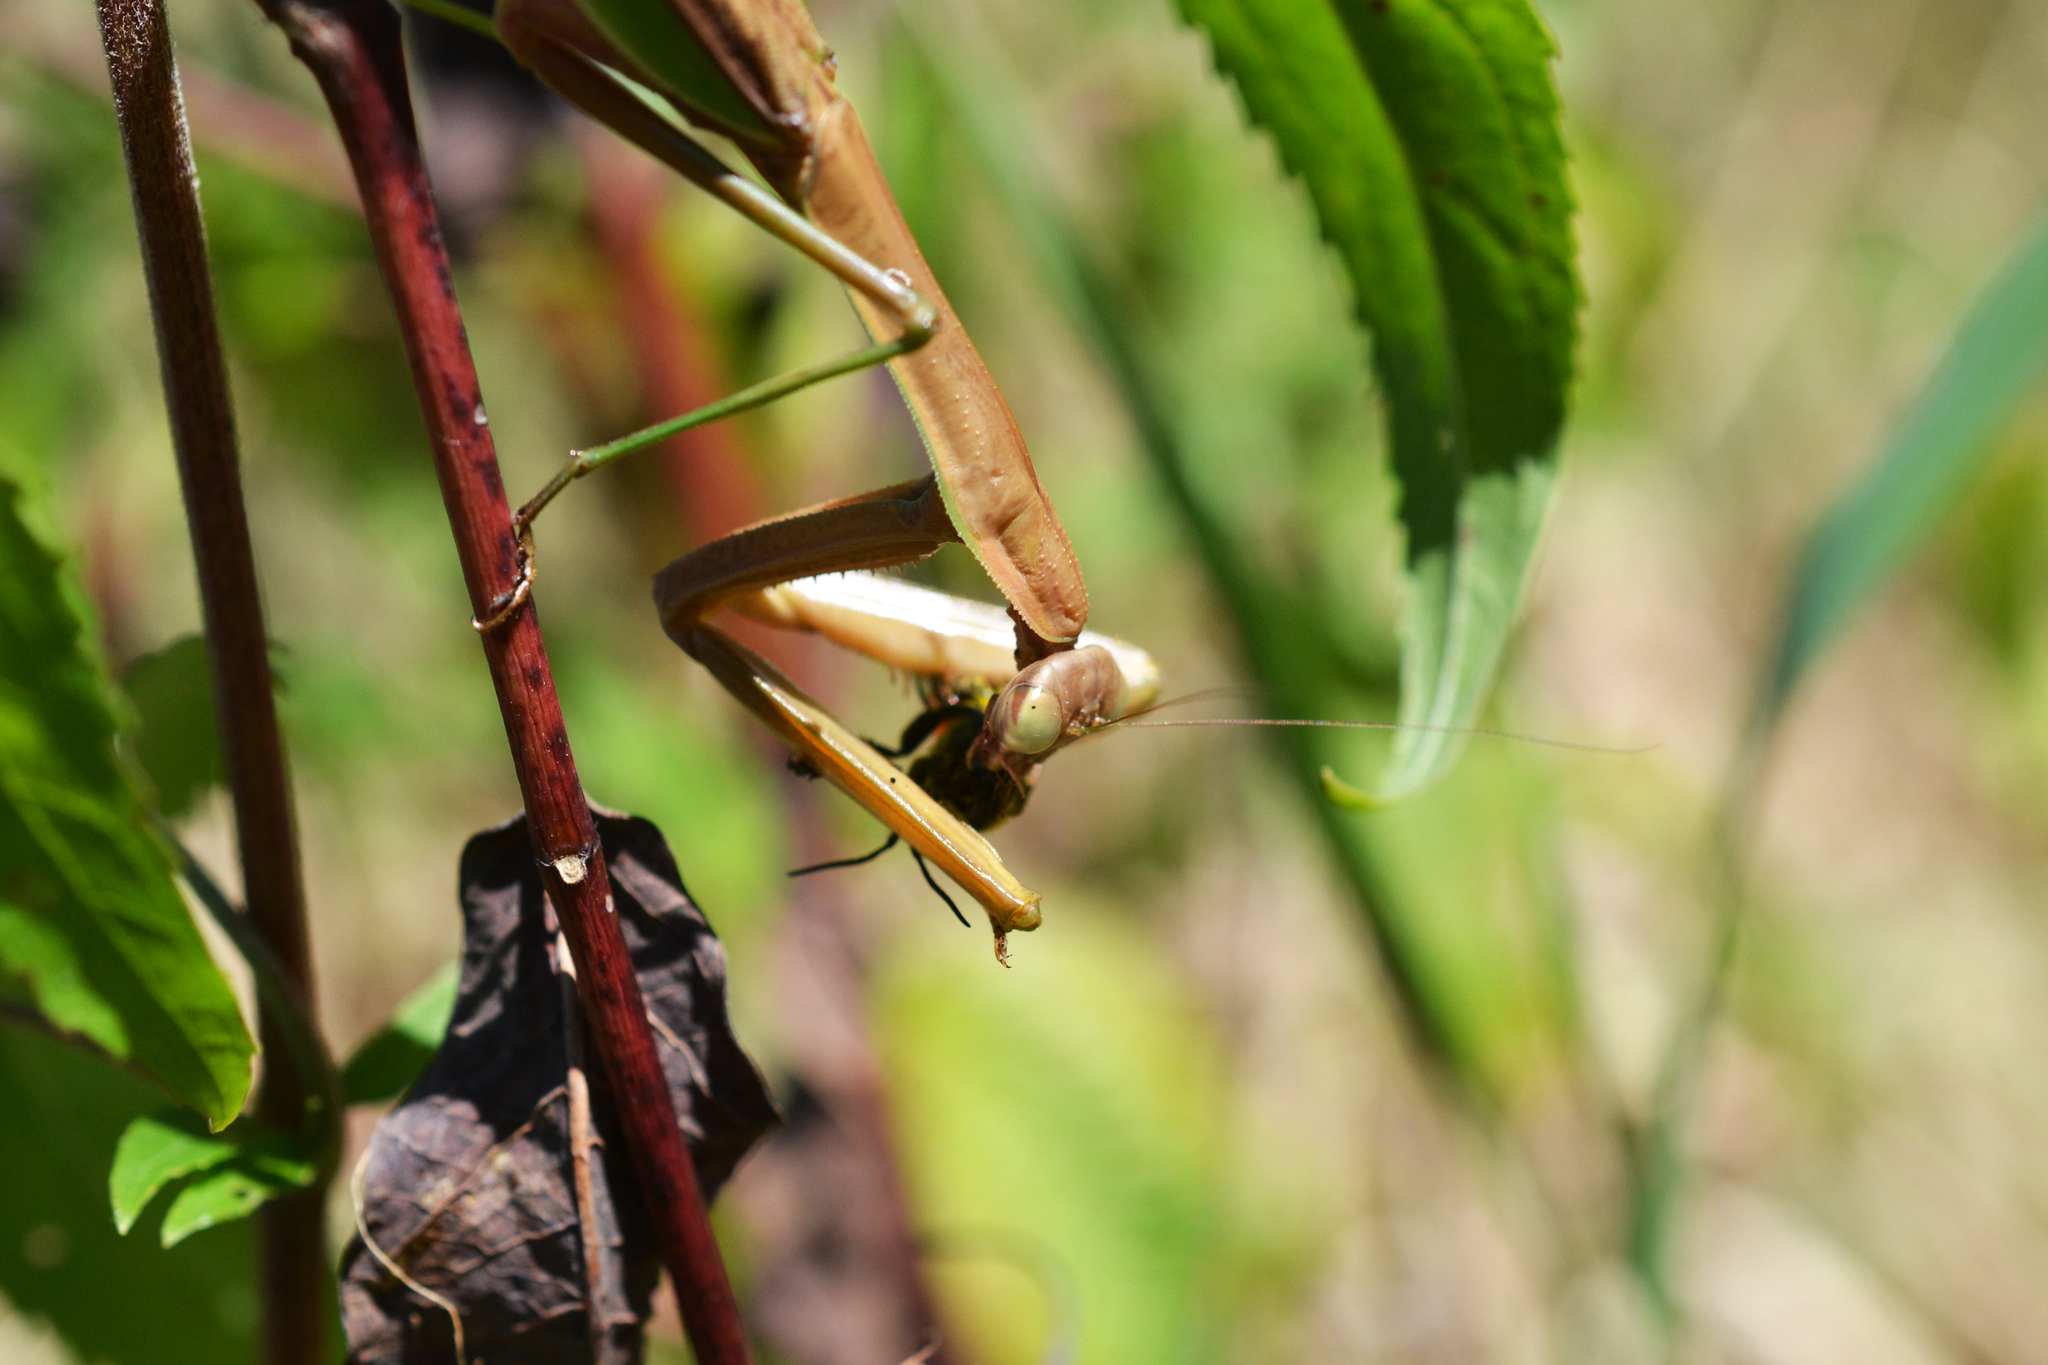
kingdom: Animalia
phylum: Arthropoda
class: Insecta
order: Mantodea
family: Mantidae
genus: Tenodera
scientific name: Tenodera sinensis
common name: Chinese mantis
